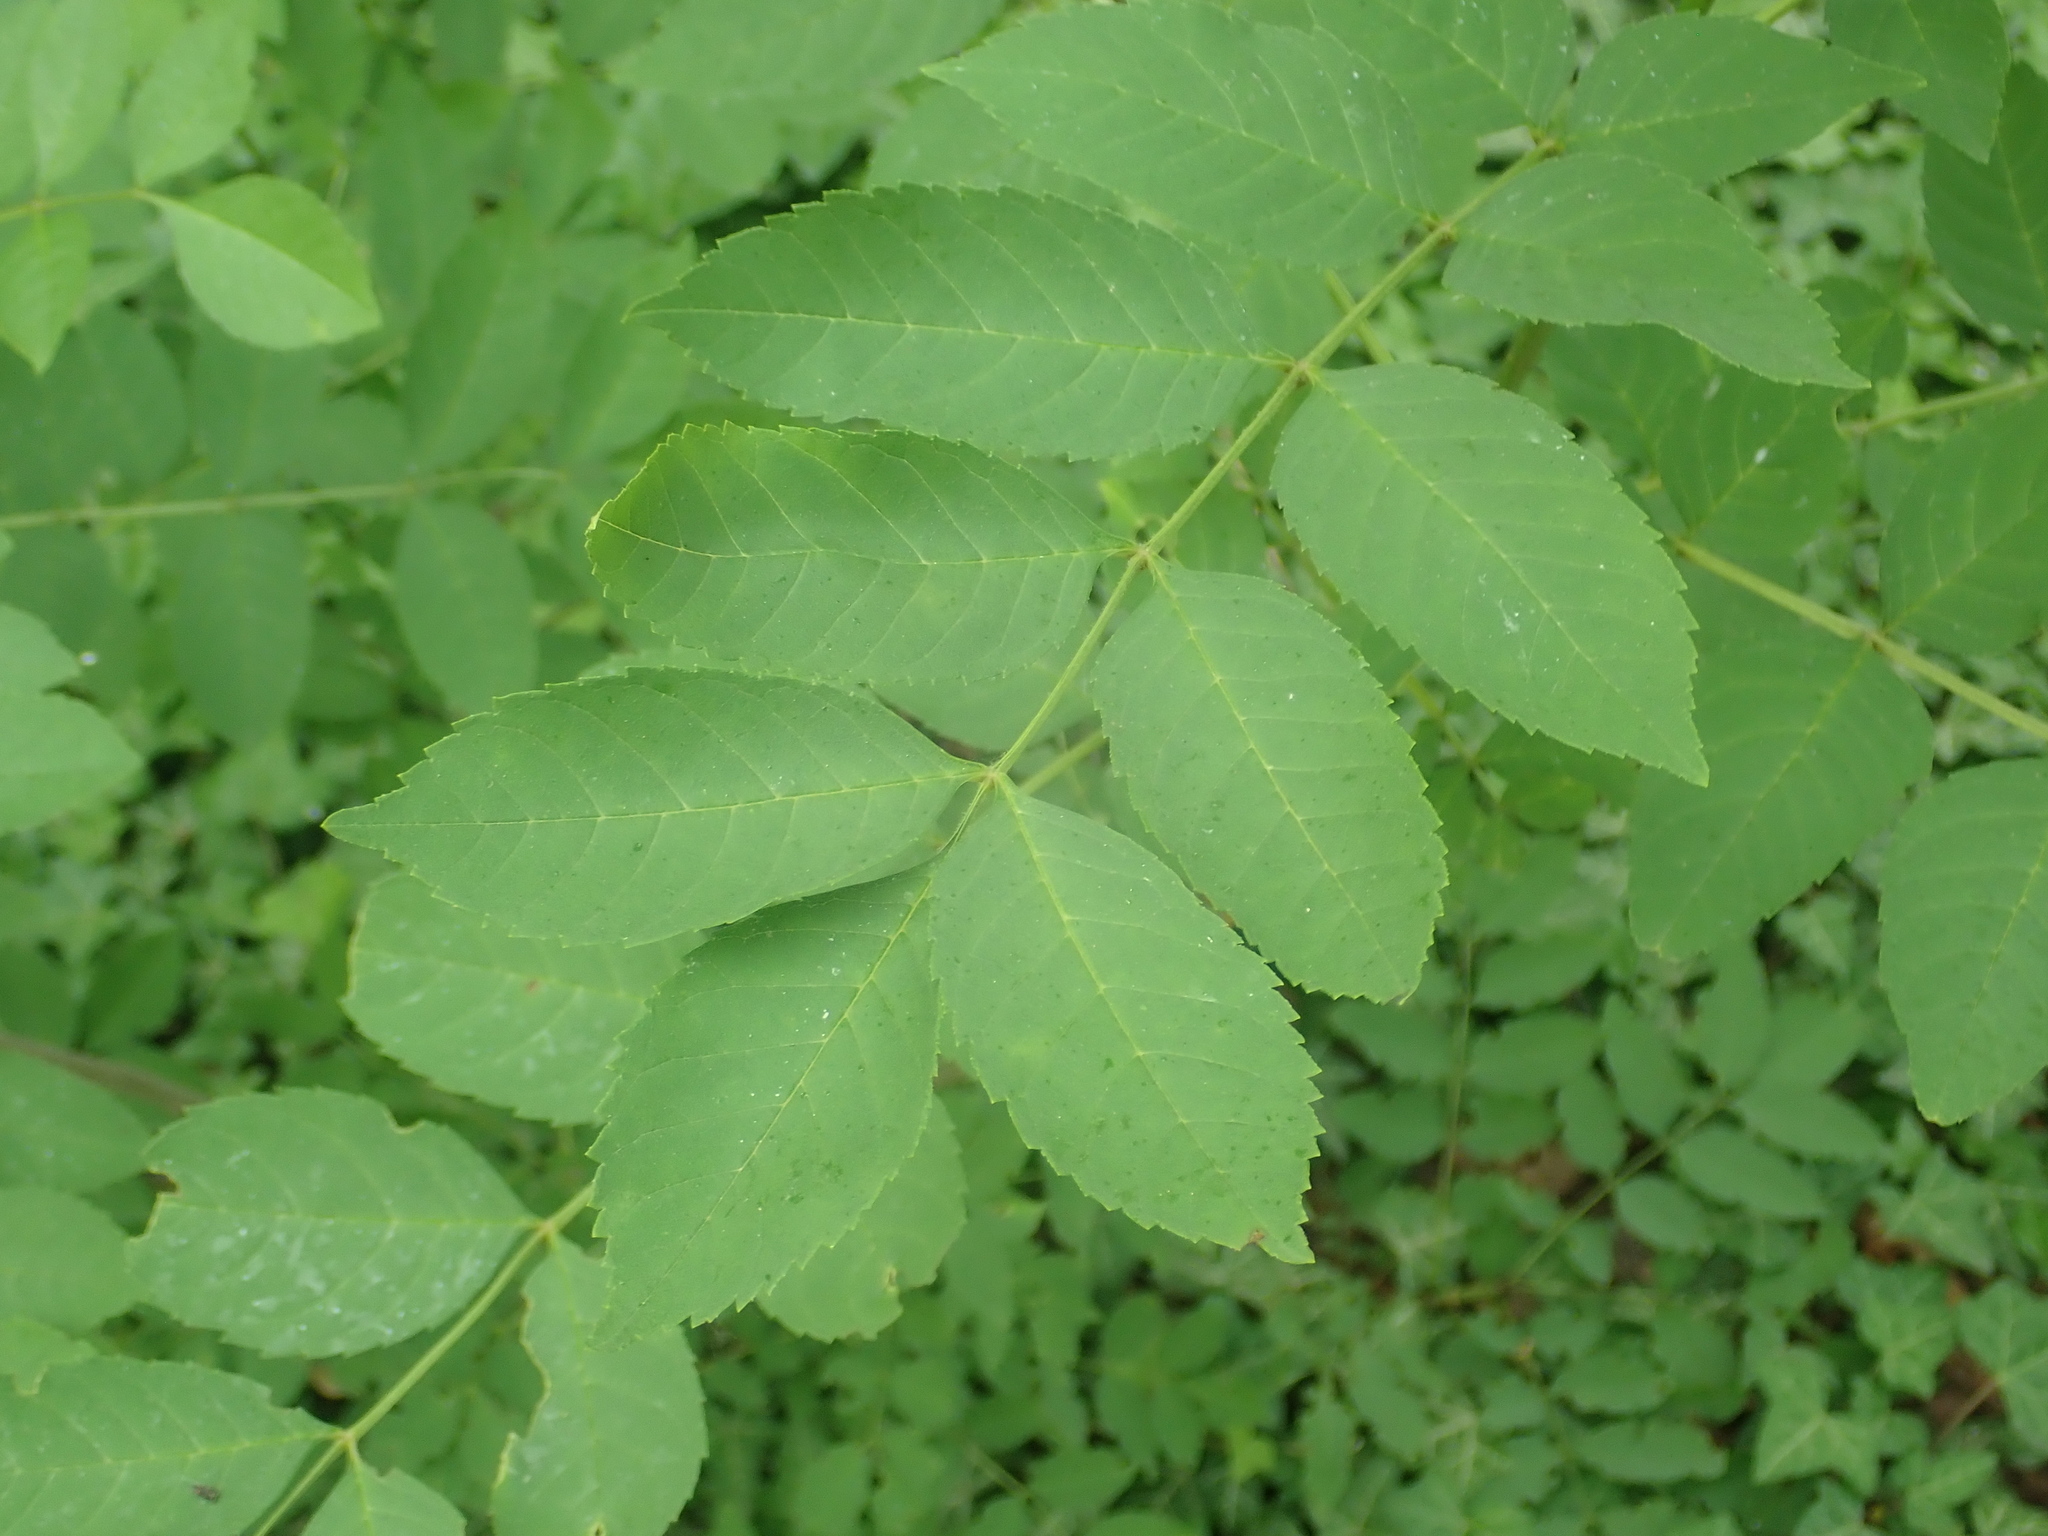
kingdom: Plantae
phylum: Tracheophyta
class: Magnoliopsida
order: Lamiales
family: Oleaceae
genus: Fraxinus
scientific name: Fraxinus excelsior
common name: European ash
